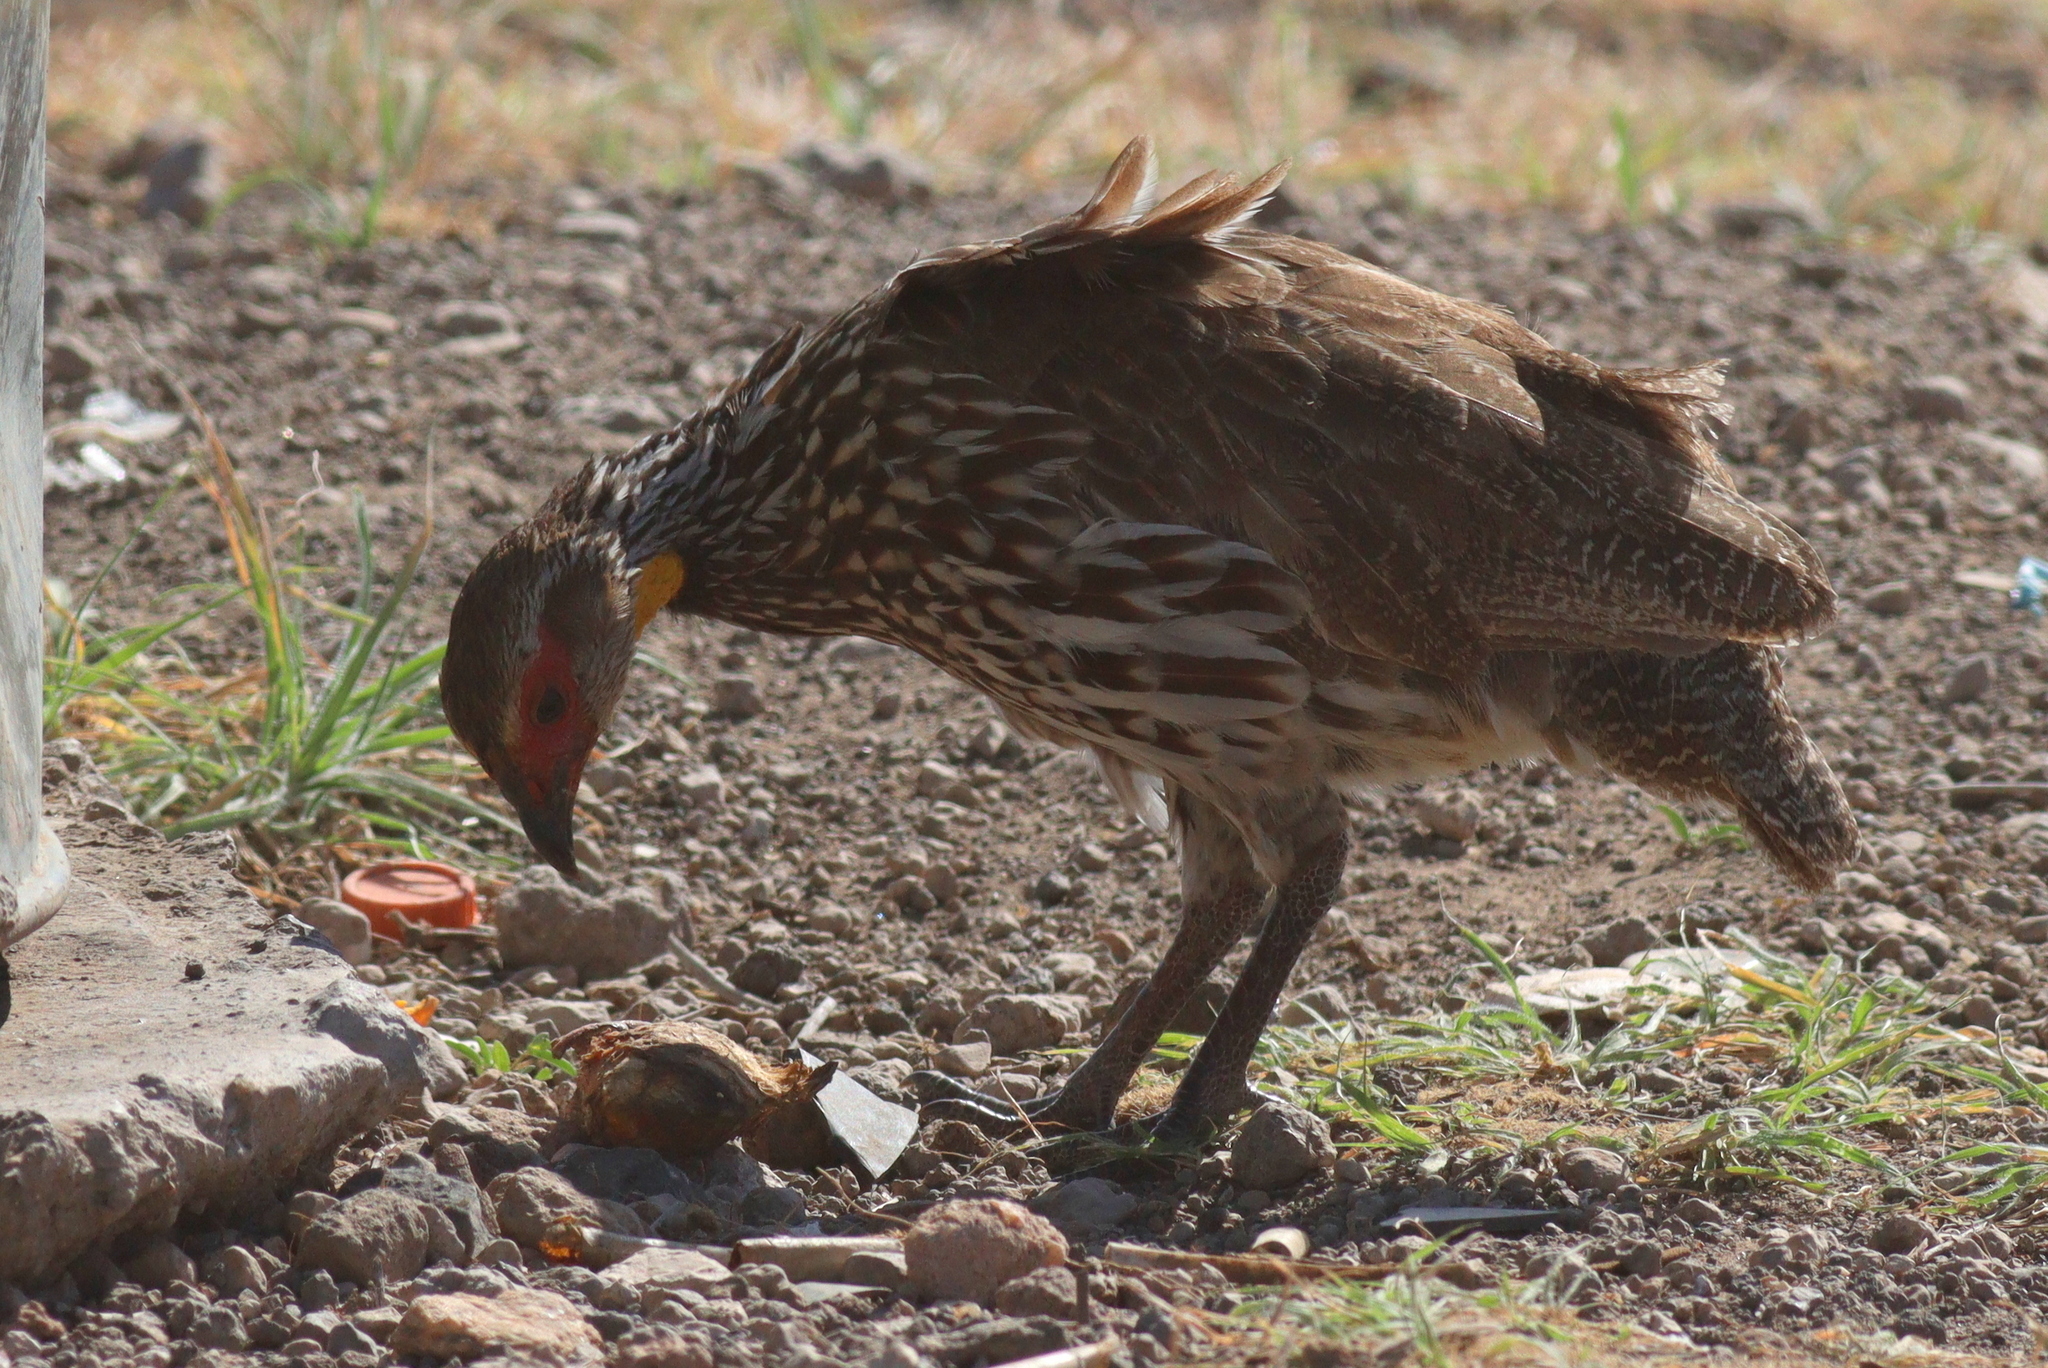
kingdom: Animalia
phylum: Chordata
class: Aves
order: Galliformes
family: Phasianidae
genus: Pternistis
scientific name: Pternistis leucoscepus
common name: Yellow-necked spurfowl
